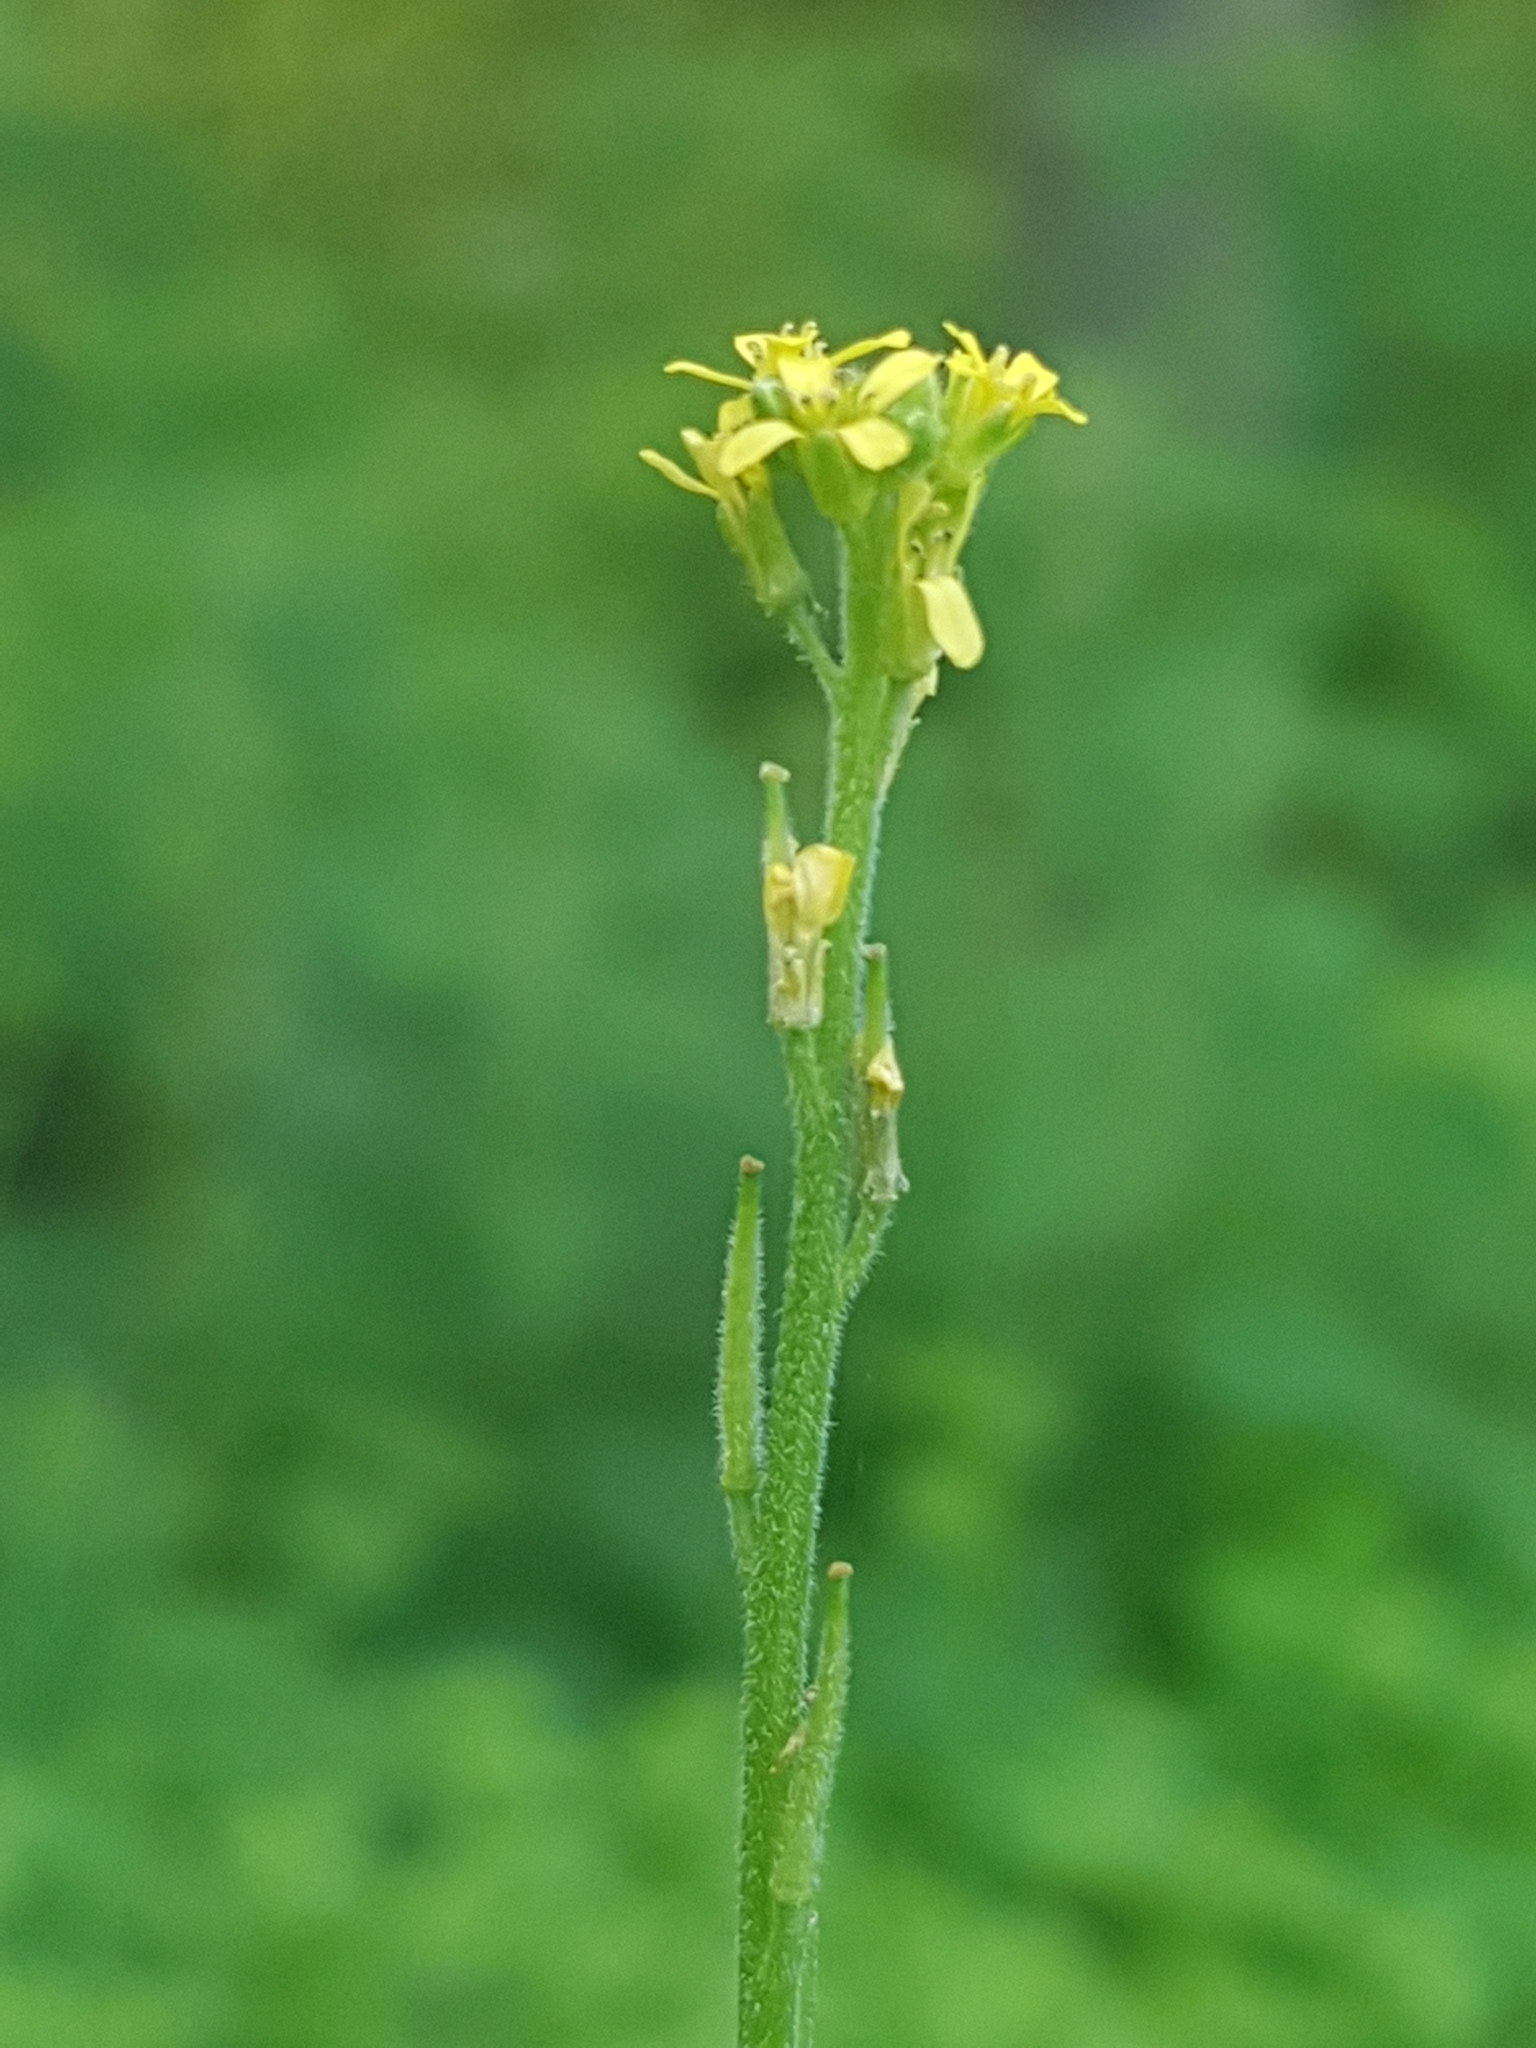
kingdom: Plantae
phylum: Tracheophyta
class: Magnoliopsida
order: Brassicales
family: Brassicaceae
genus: Sisymbrium
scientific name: Sisymbrium officinale
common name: Hedge mustard
